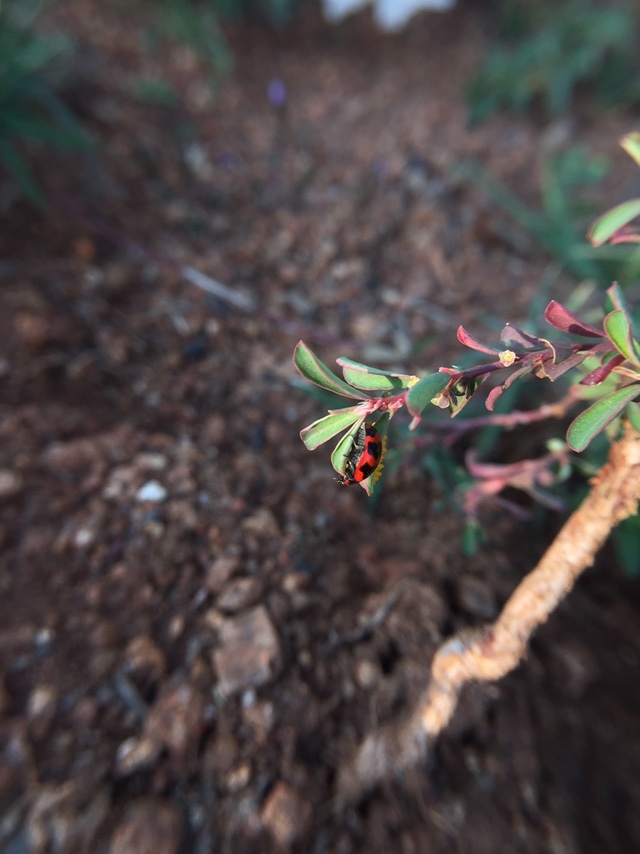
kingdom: Animalia
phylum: Arthropoda
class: Insecta
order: Coleoptera
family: Coccinellidae
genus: Coccinella
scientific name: Coccinella transversalis
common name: Transverse lady beetle
